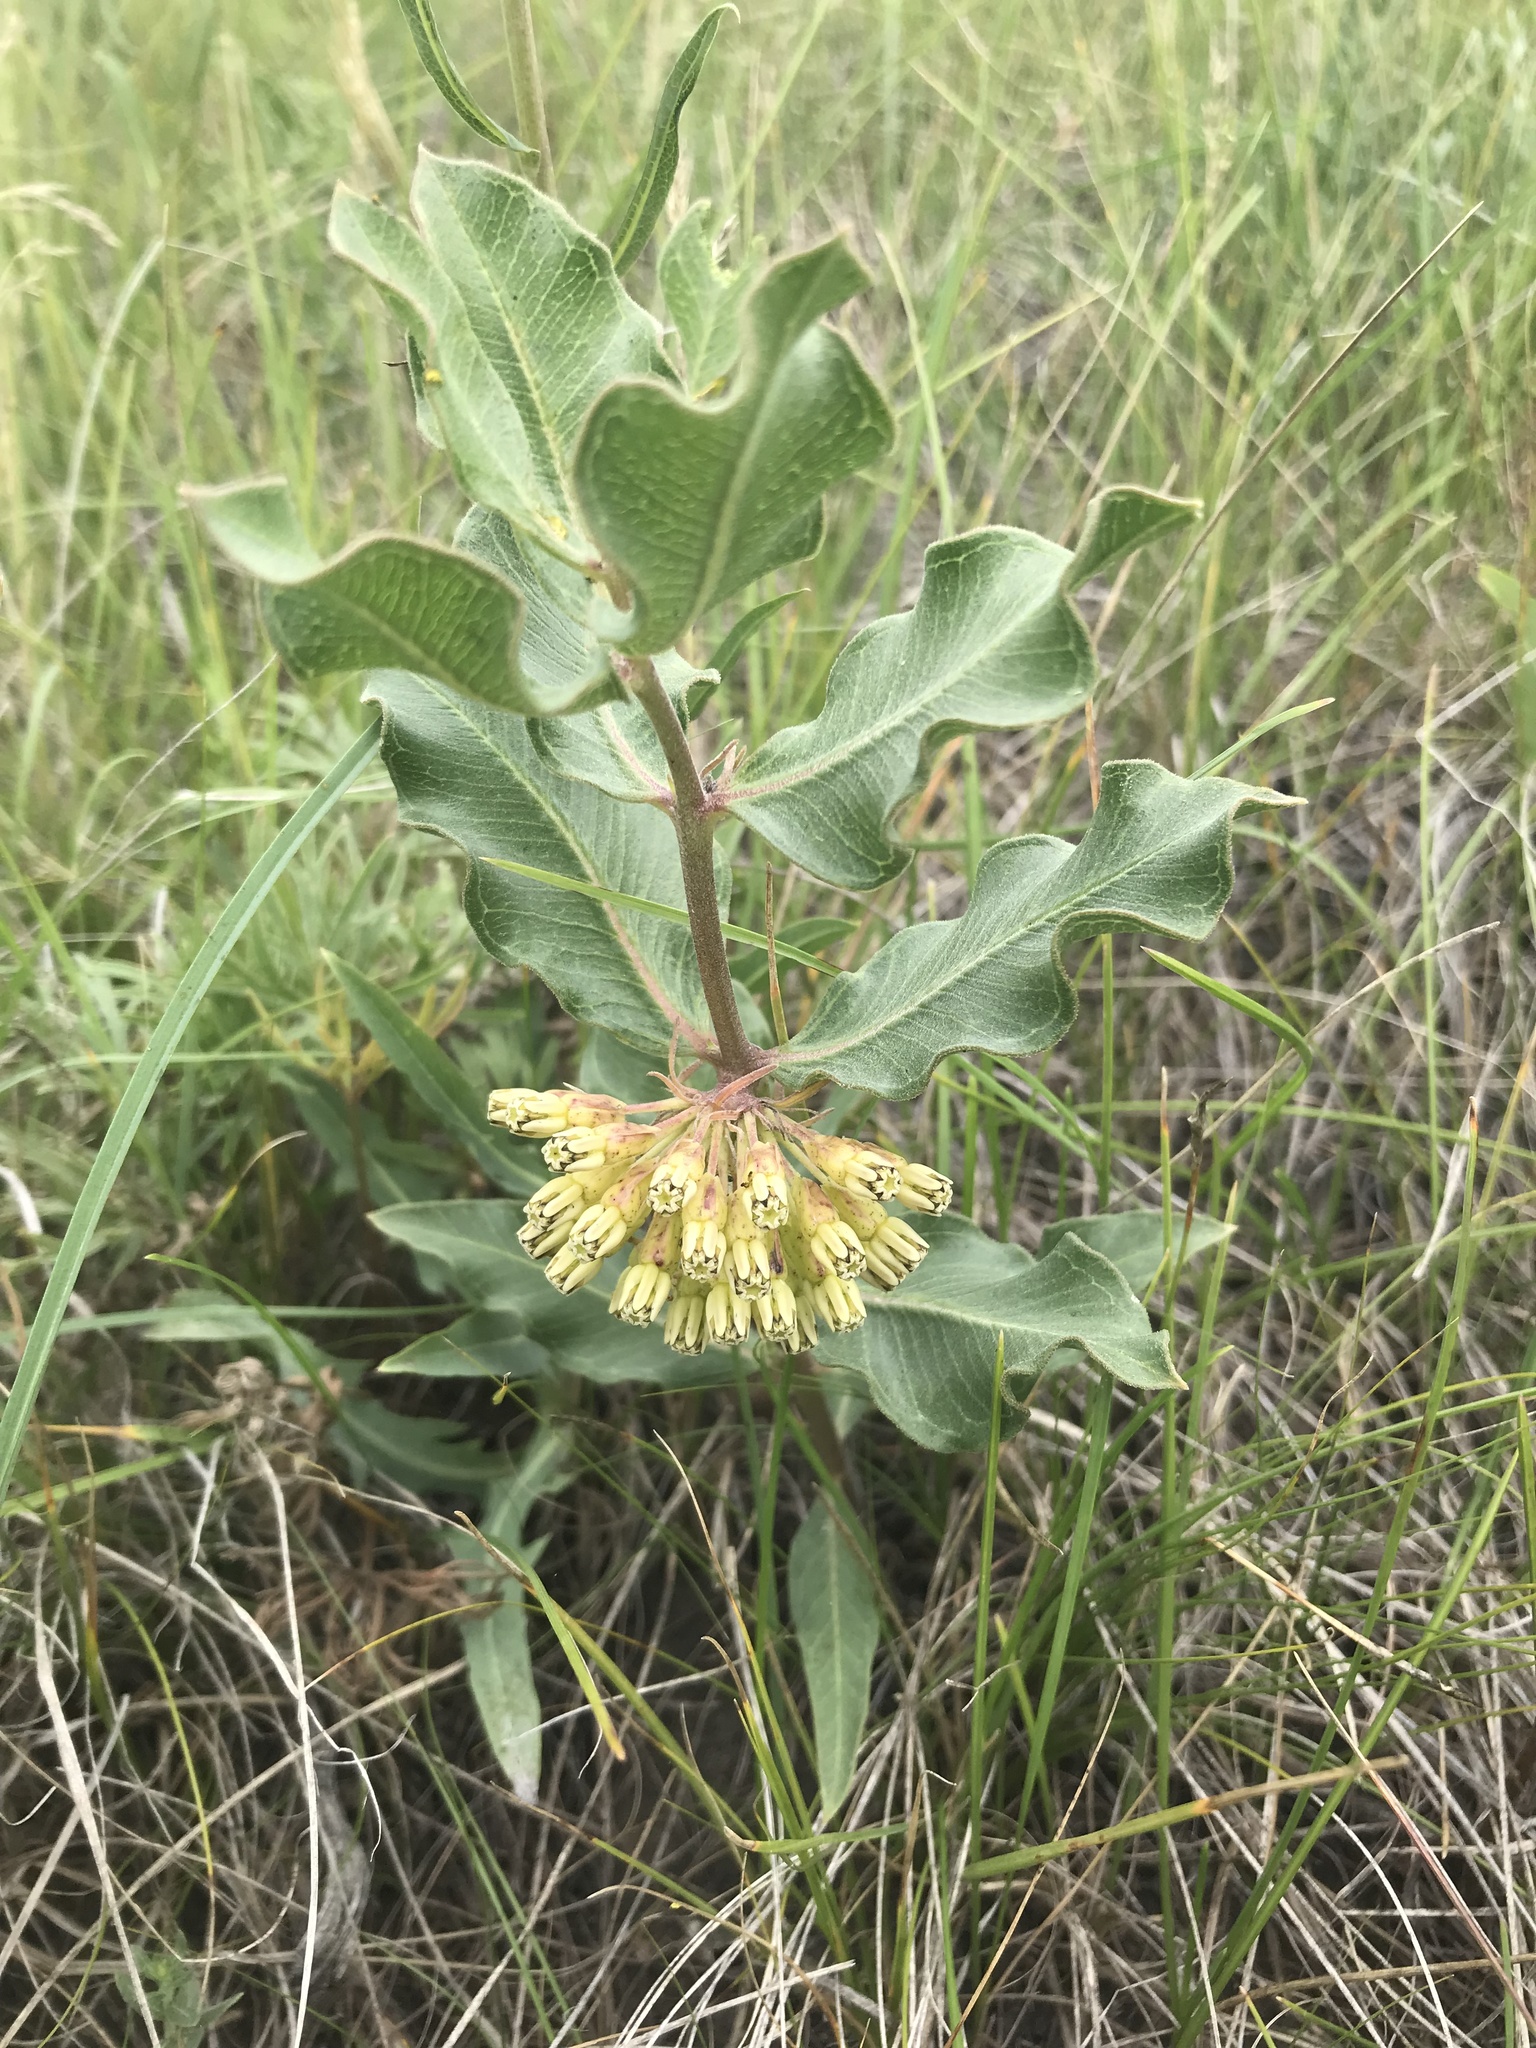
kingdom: Plantae
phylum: Tracheophyta
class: Magnoliopsida
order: Gentianales
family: Apocynaceae
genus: Asclepias
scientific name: Asclepias viridiflora
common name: Green comet milkweed
